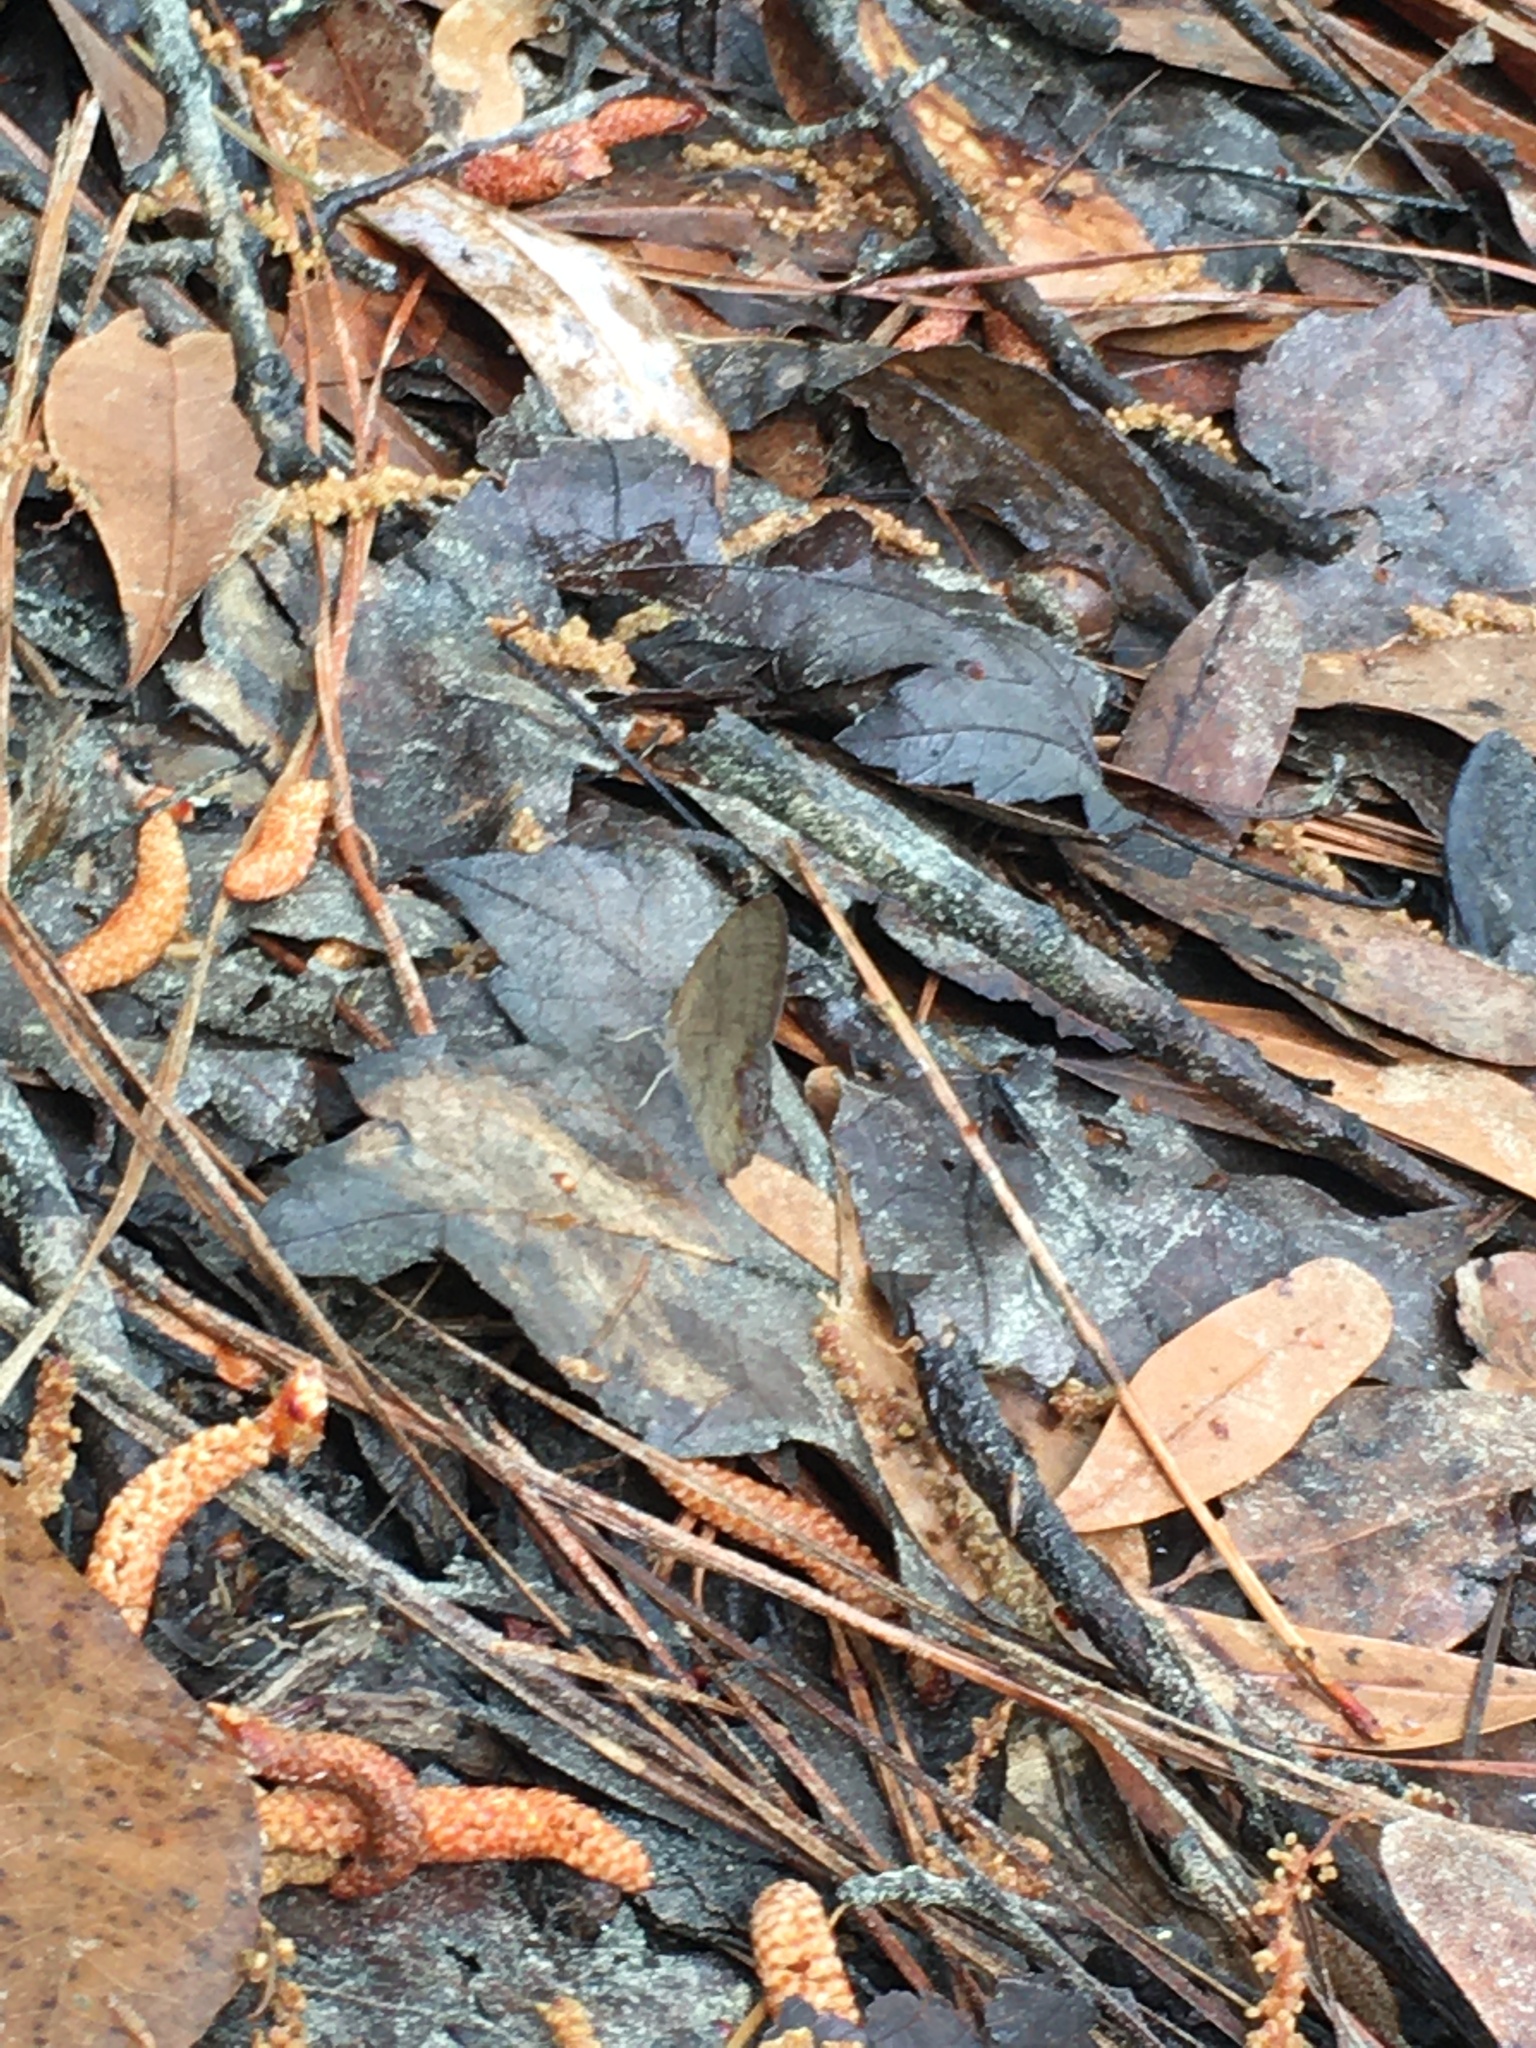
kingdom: Animalia
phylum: Arthropoda
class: Insecta
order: Lepidoptera
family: Nymphalidae
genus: Euptychia
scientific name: Euptychia cornelius
